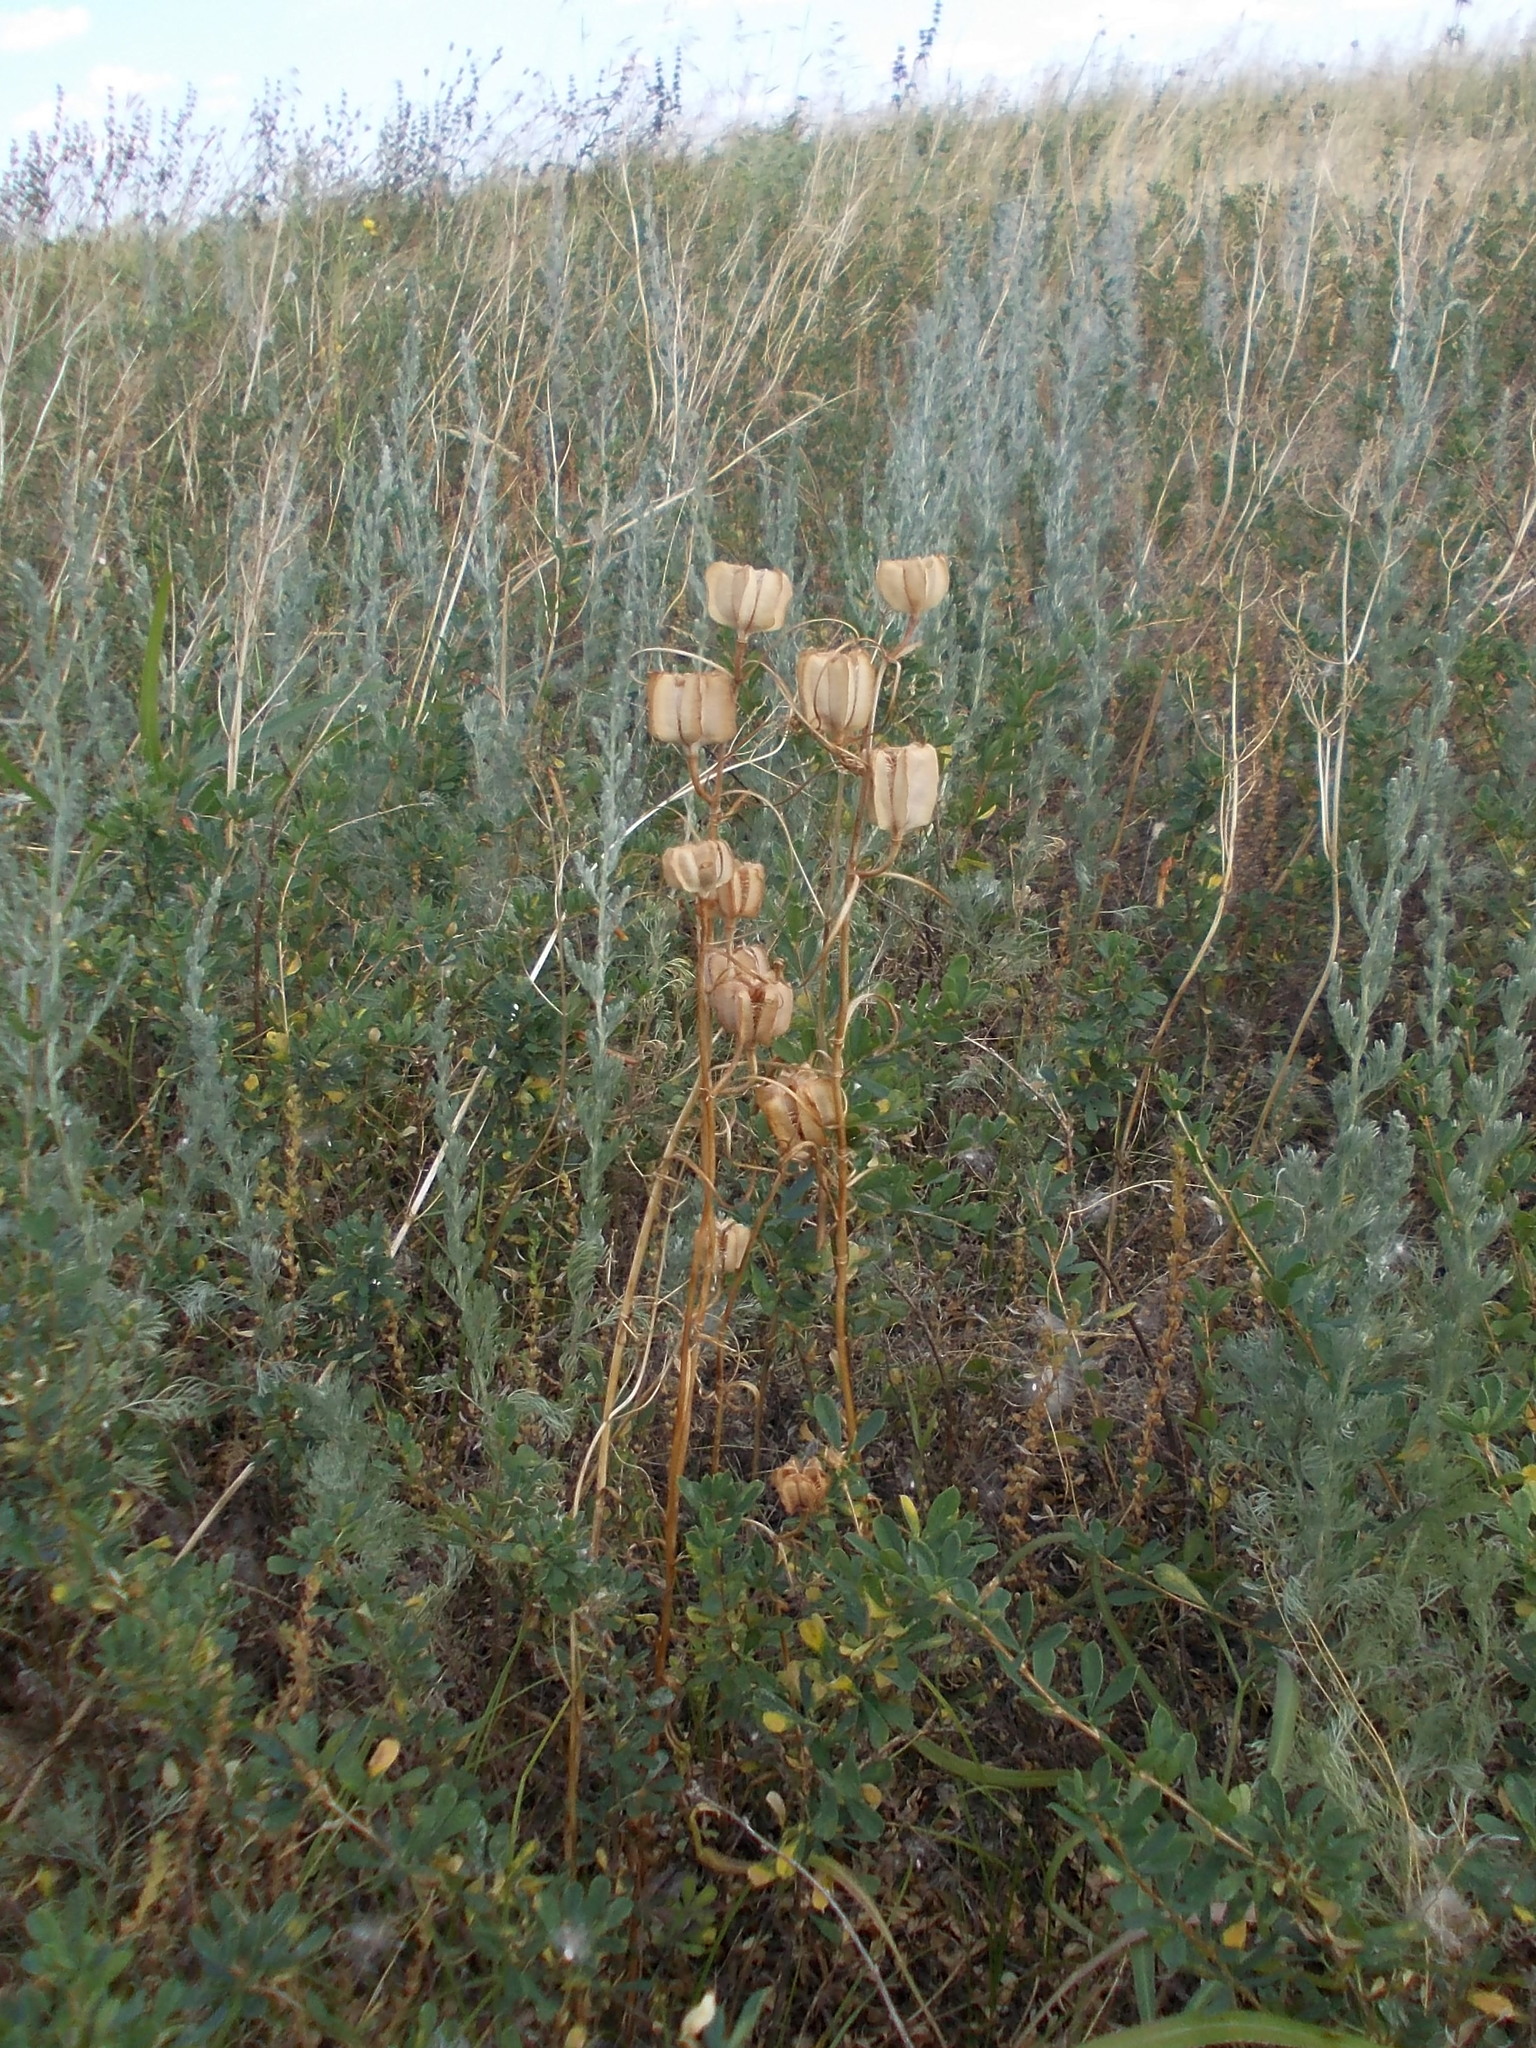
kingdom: Plantae
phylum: Tracheophyta
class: Liliopsida
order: Liliales
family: Liliaceae
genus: Fritillaria
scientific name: Fritillaria ruthenica
